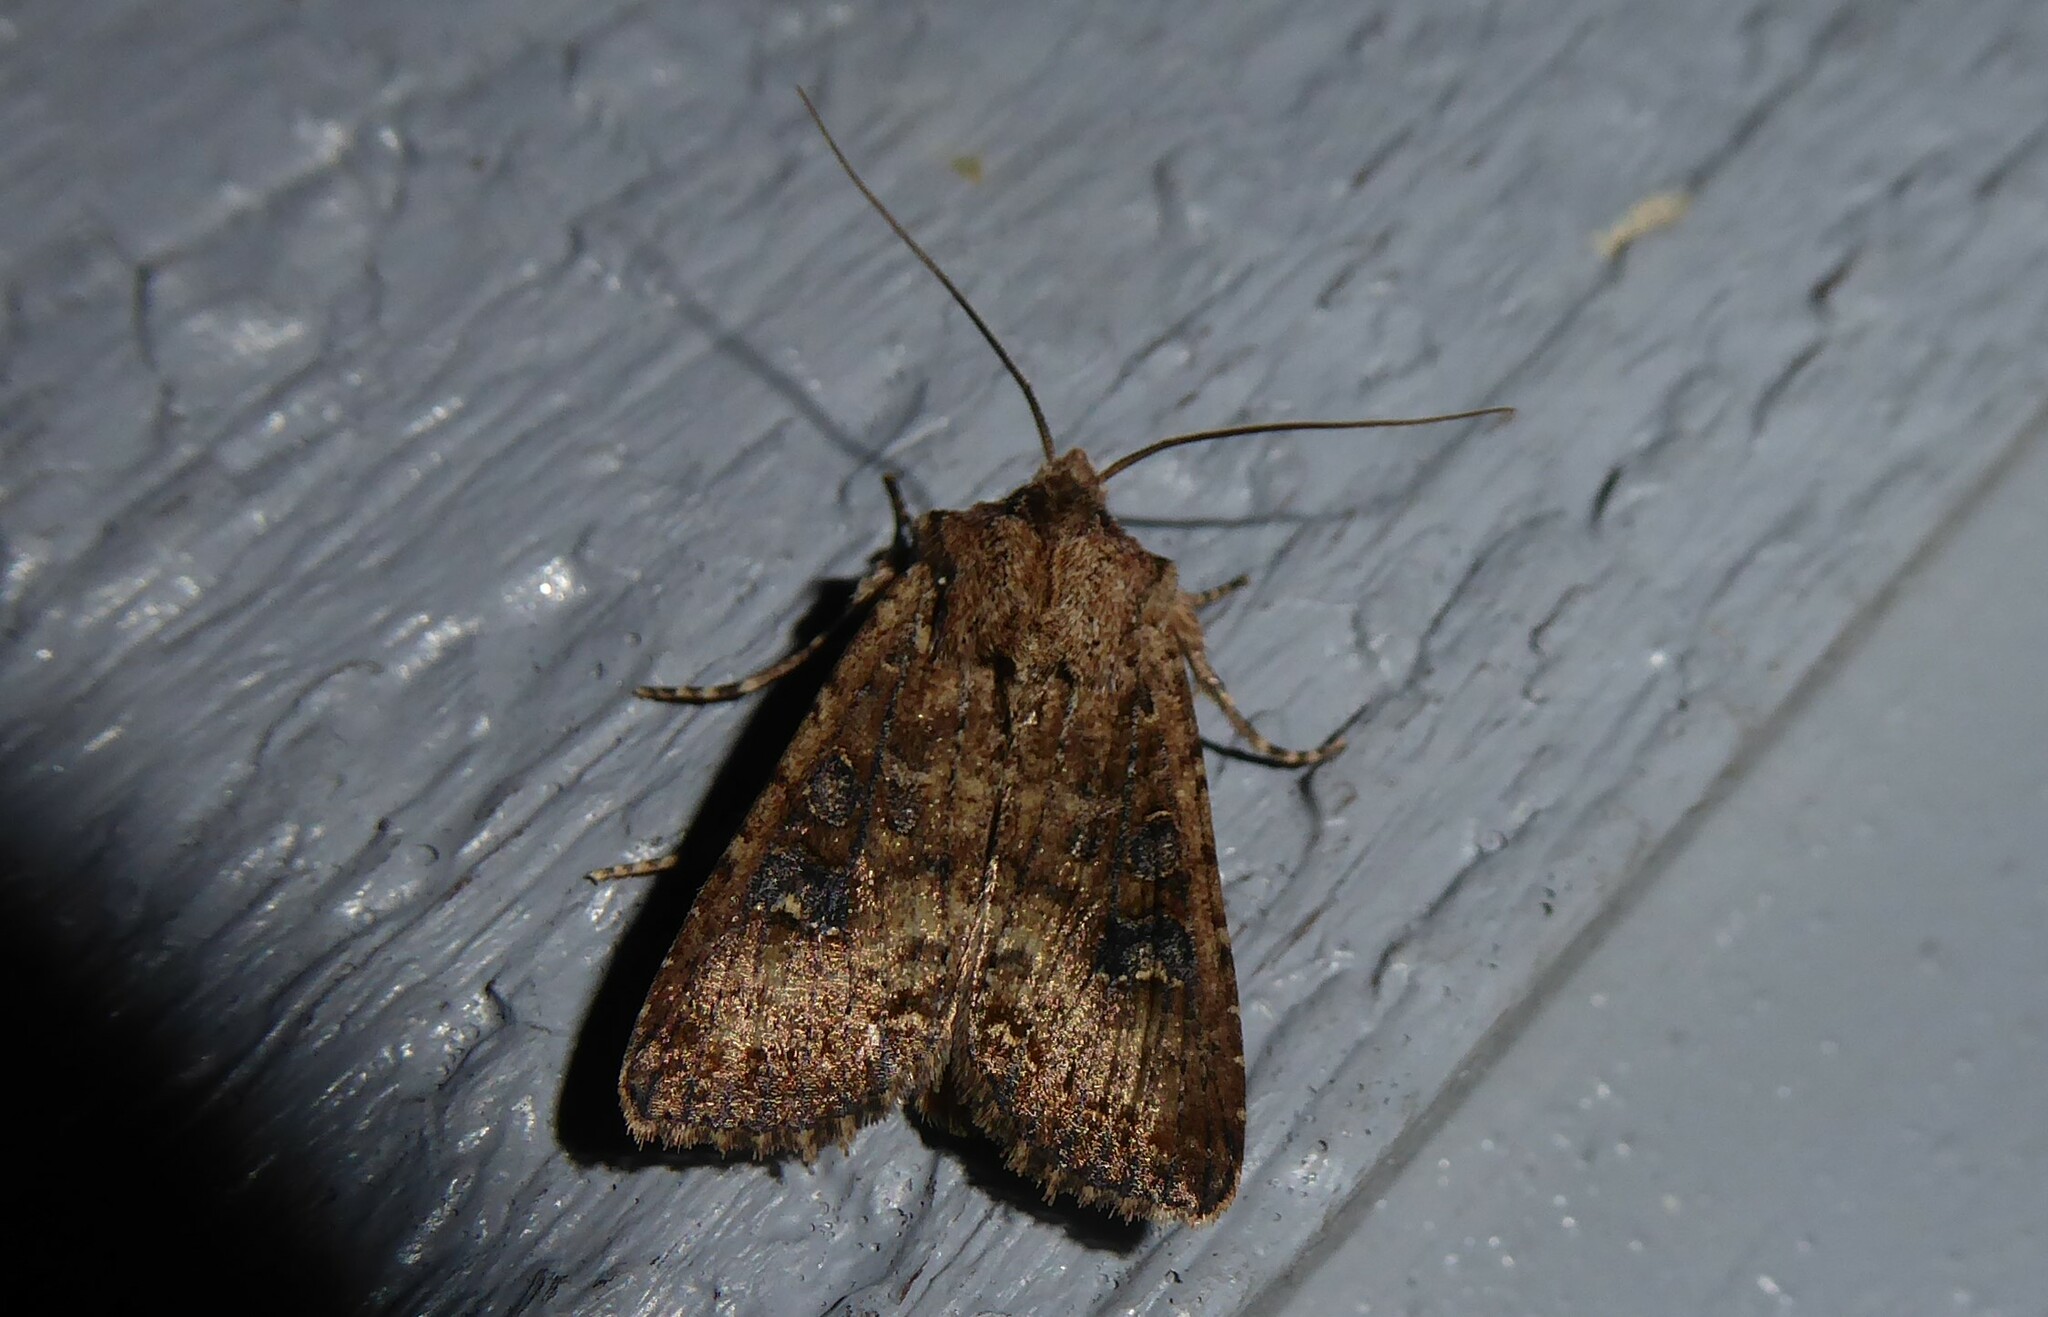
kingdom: Animalia
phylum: Arthropoda
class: Insecta
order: Lepidoptera
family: Noctuidae
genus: Ichneutica
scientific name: Ichneutica morosa
